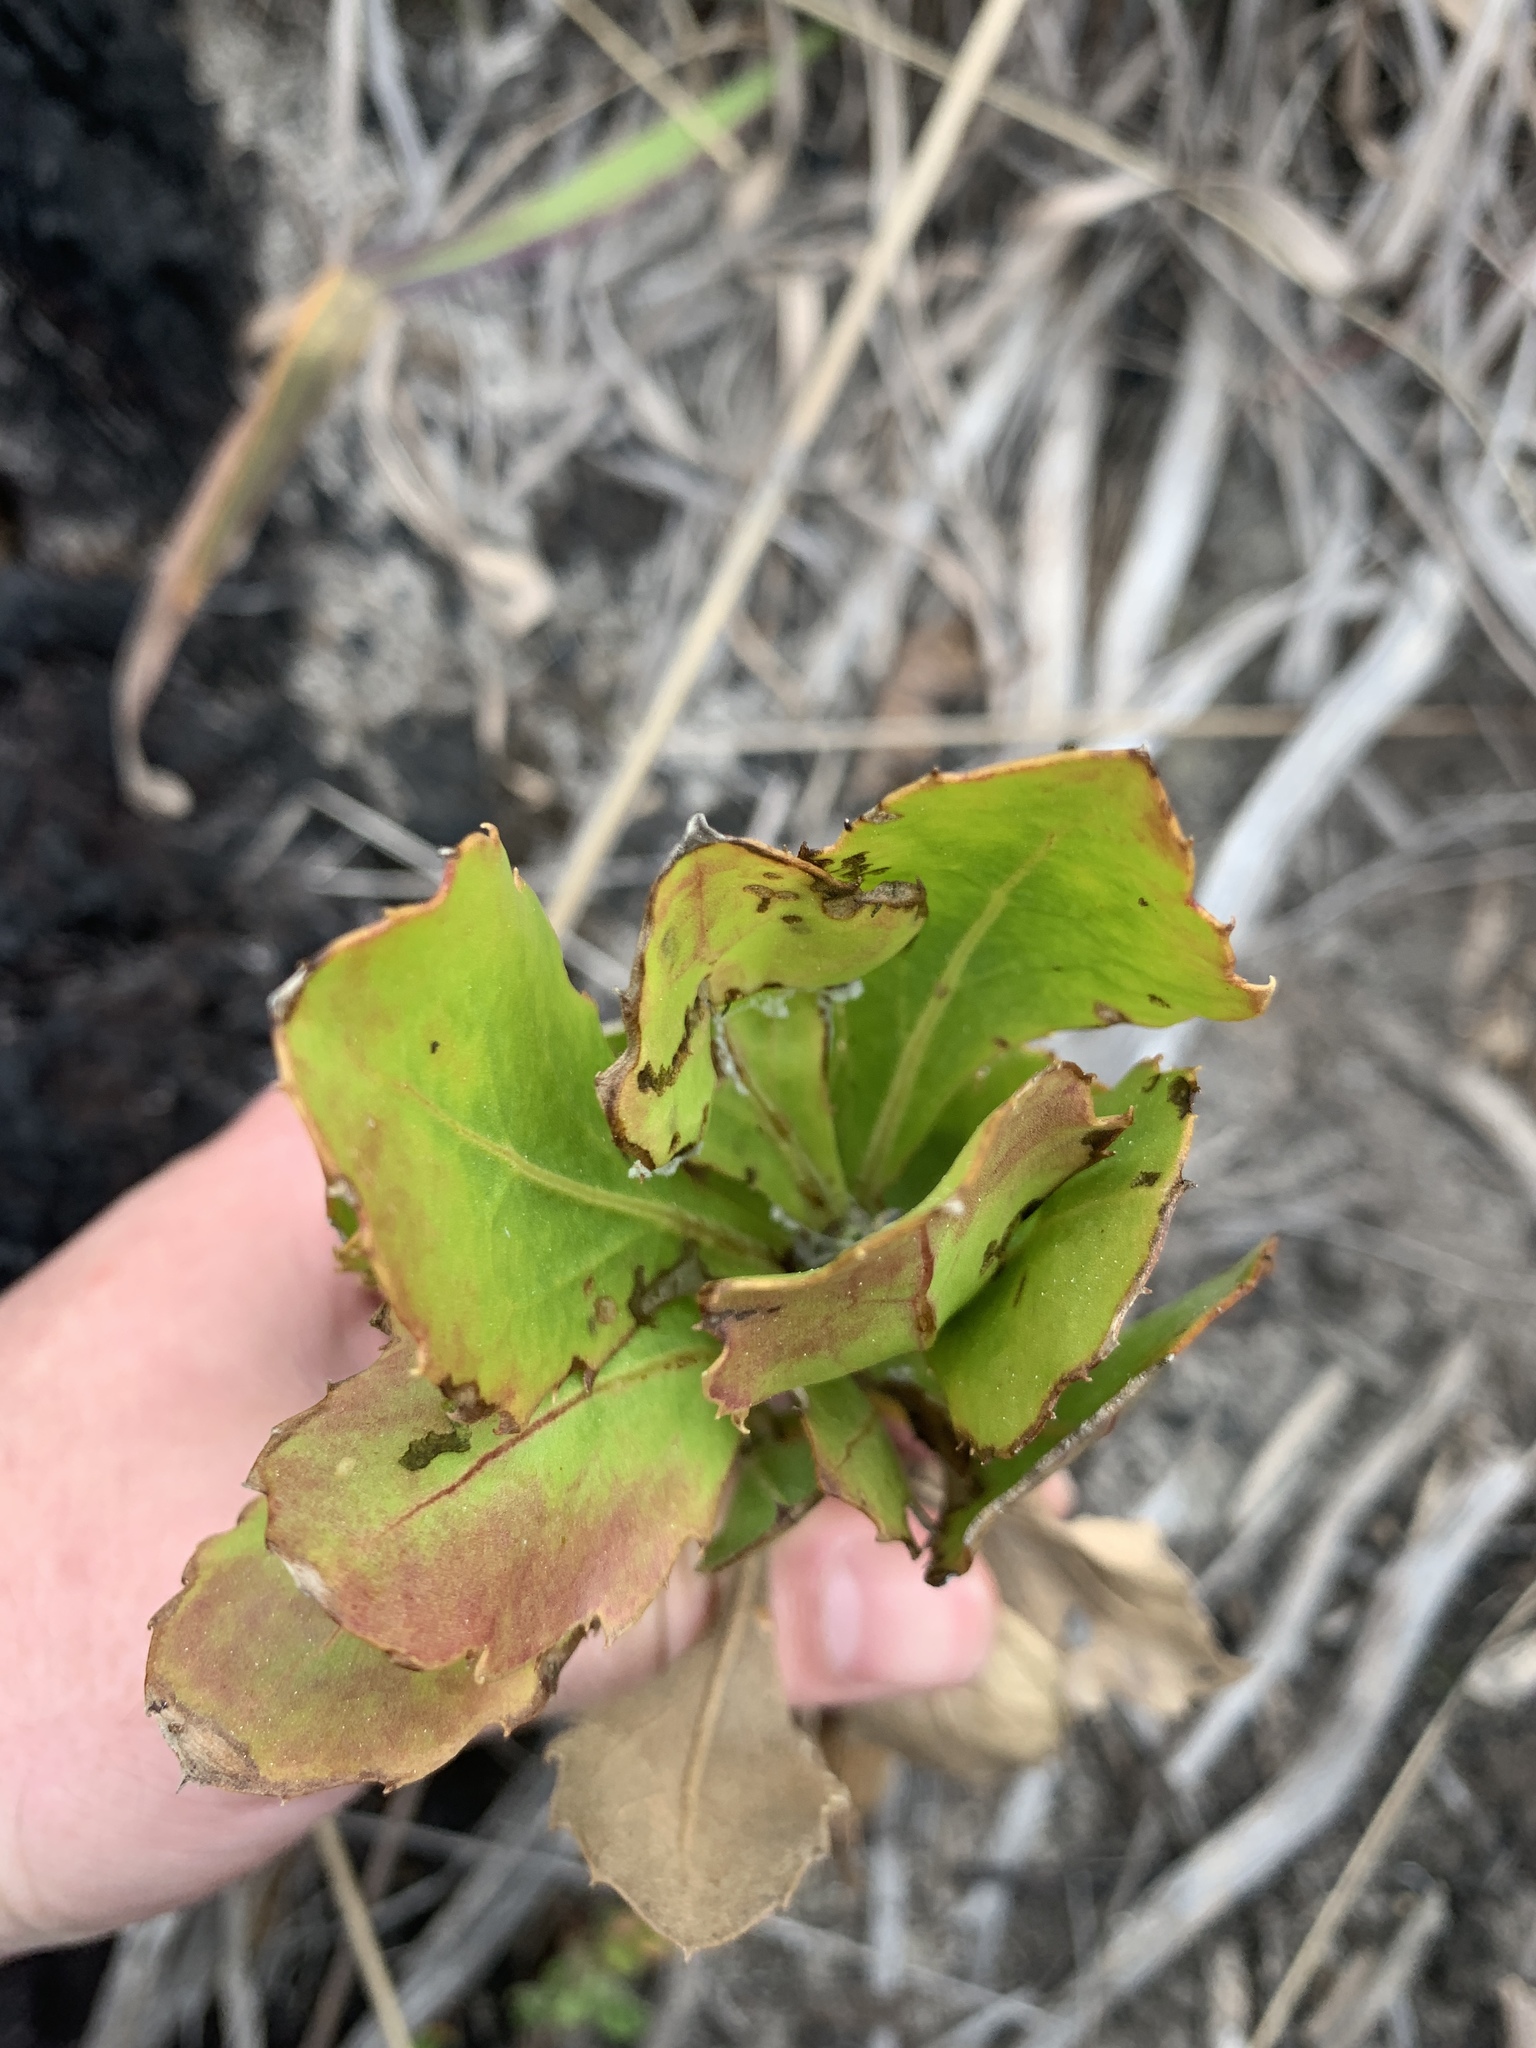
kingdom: Plantae
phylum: Tracheophyta
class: Magnoliopsida
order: Asterales
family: Asteraceae
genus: Osteospermum
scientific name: Osteospermum moniliferum
